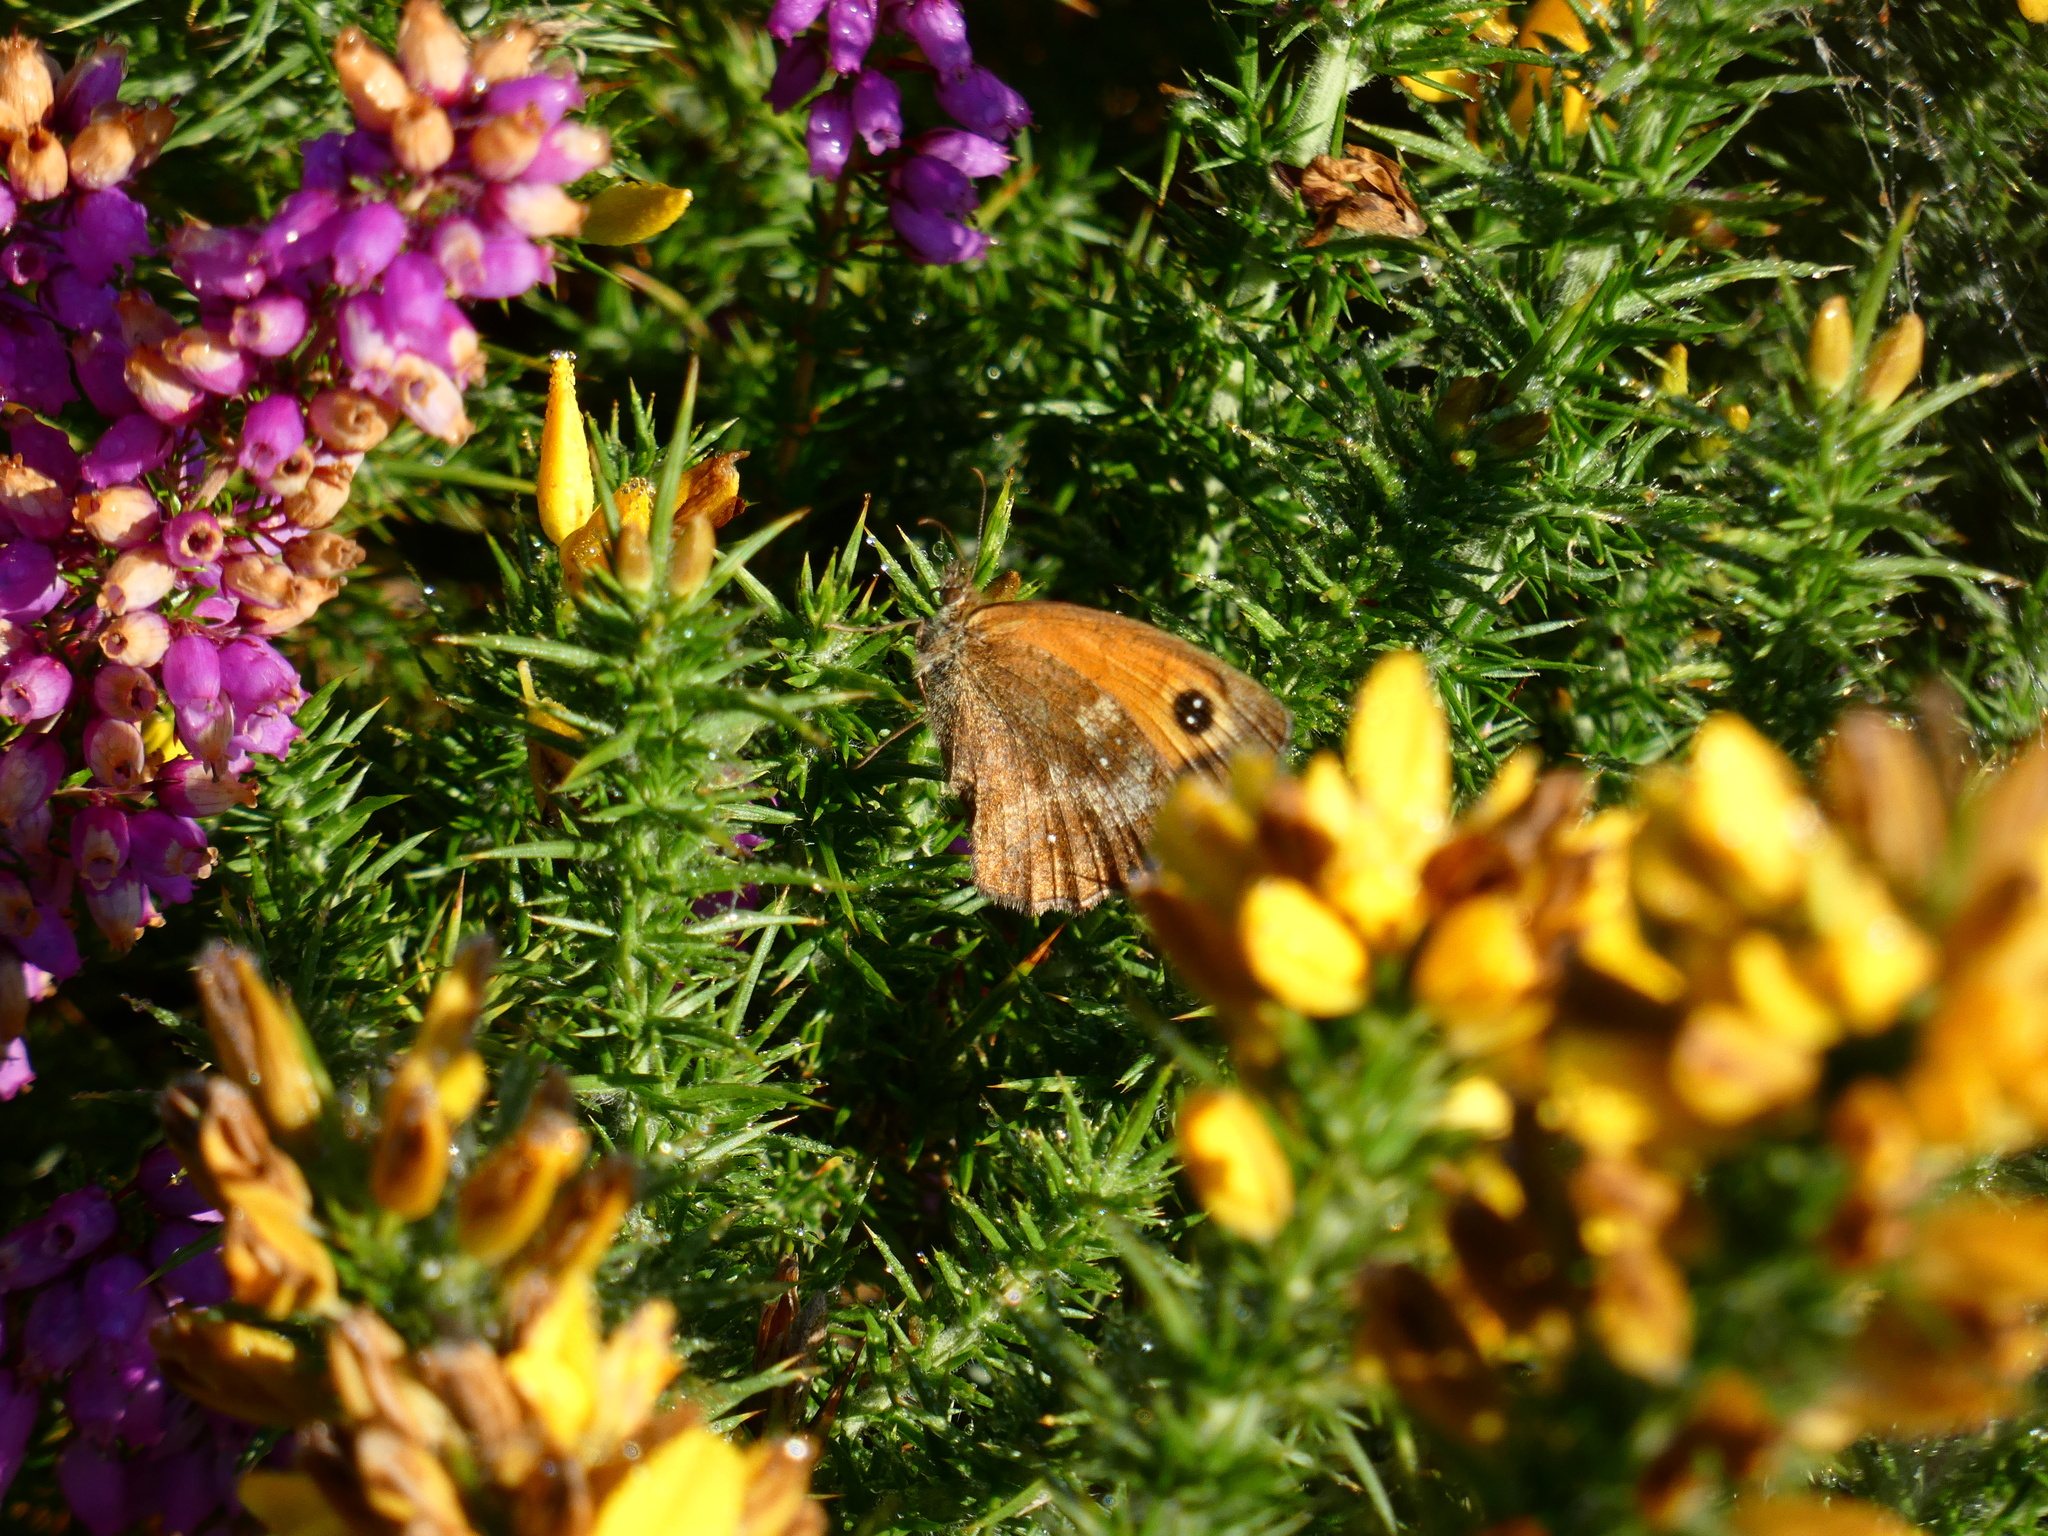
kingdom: Animalia
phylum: Arthropoda
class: Insecta
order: Lepidoptera
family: Nymphalidae
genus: Pyronia
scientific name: Pyronia tithonus
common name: Gatekeeper
